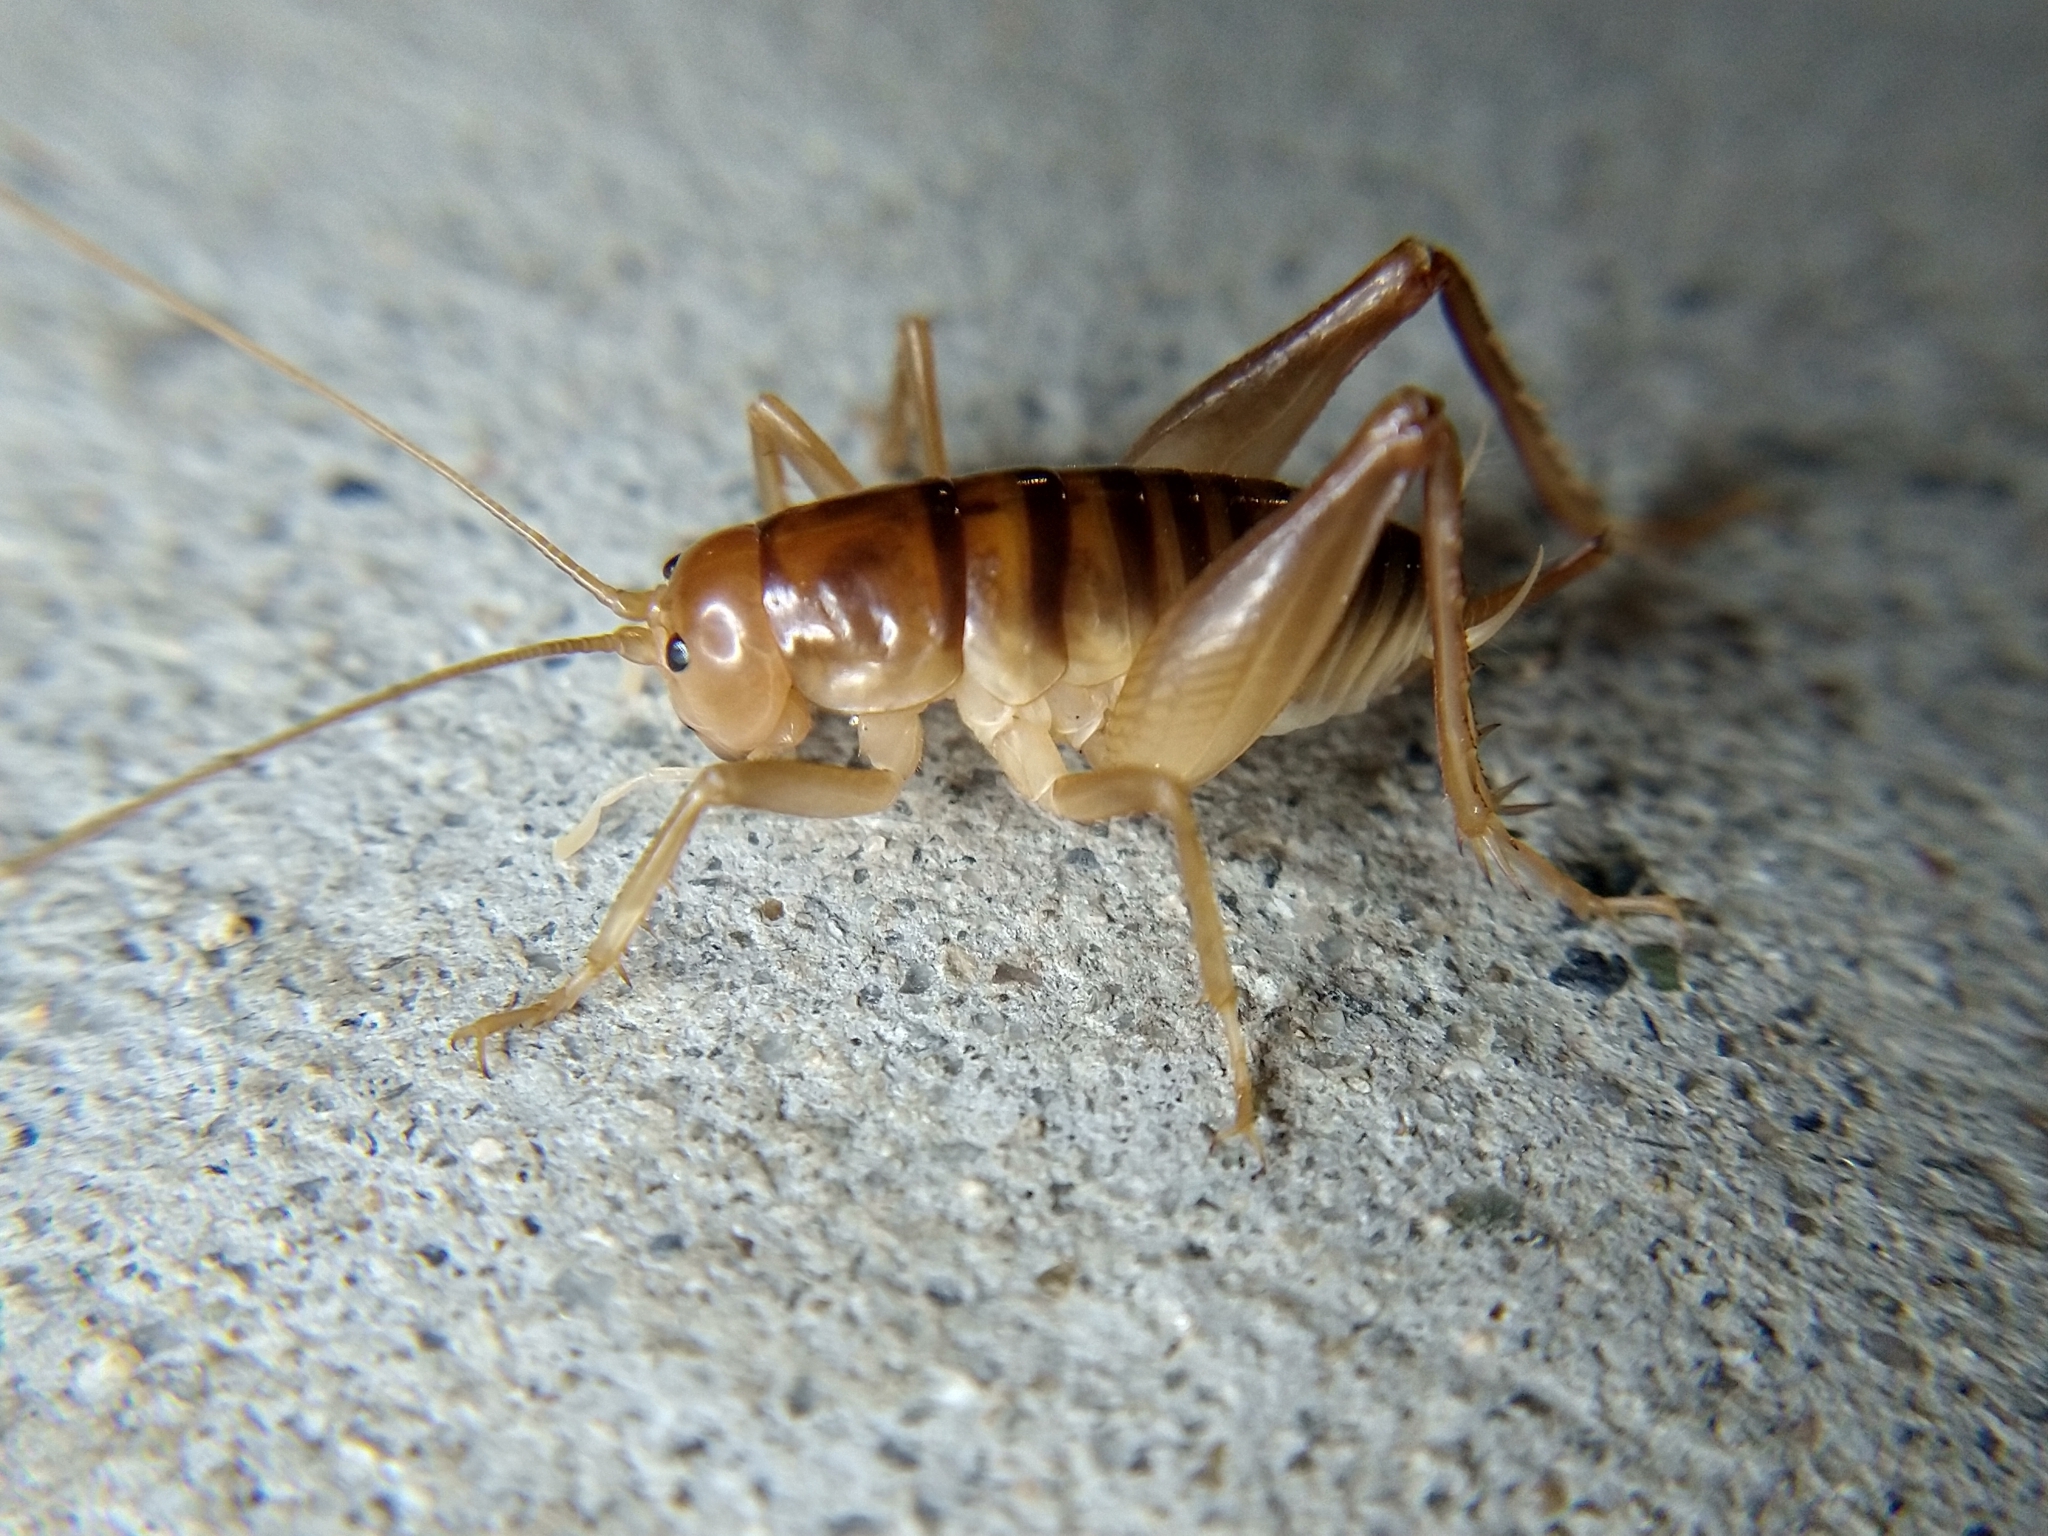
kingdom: Animalia
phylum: Arthropoda
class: Insecta
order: Orthoptera
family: Rhaphidophoridae
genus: Ceuthophilus
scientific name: Ceuthophilus californianus
